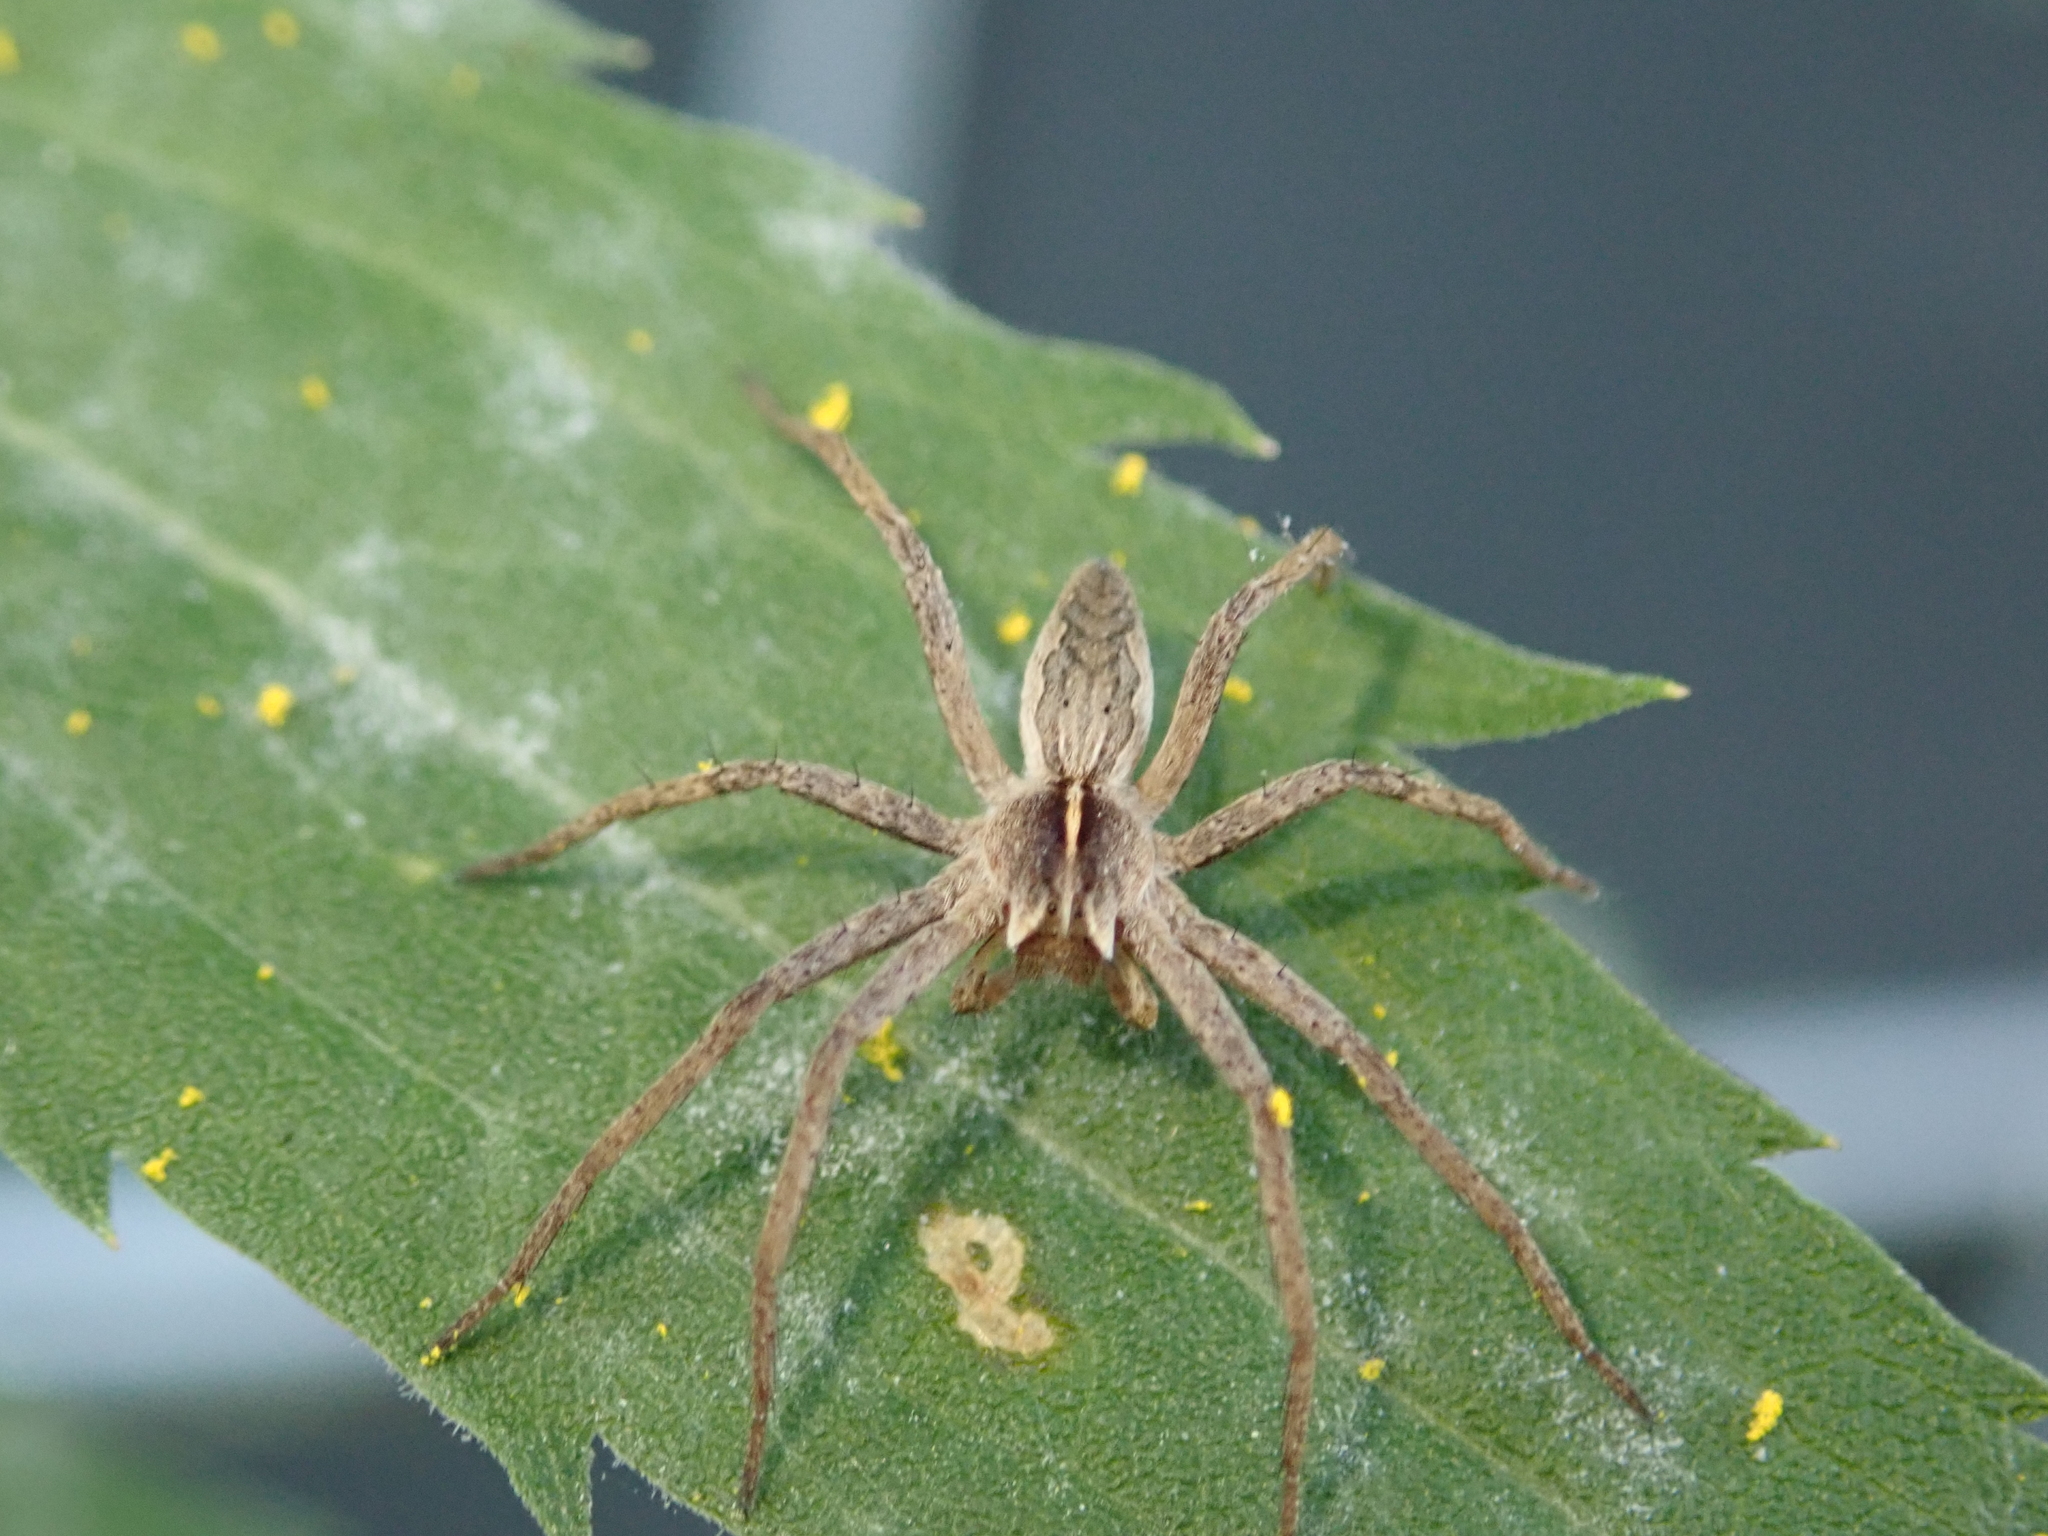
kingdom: Animalia
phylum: Arthropoda
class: Arachnida
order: Araneae
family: Pisauridae
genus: Pisaura
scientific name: Pisaura mirabilis
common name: Tent spider
